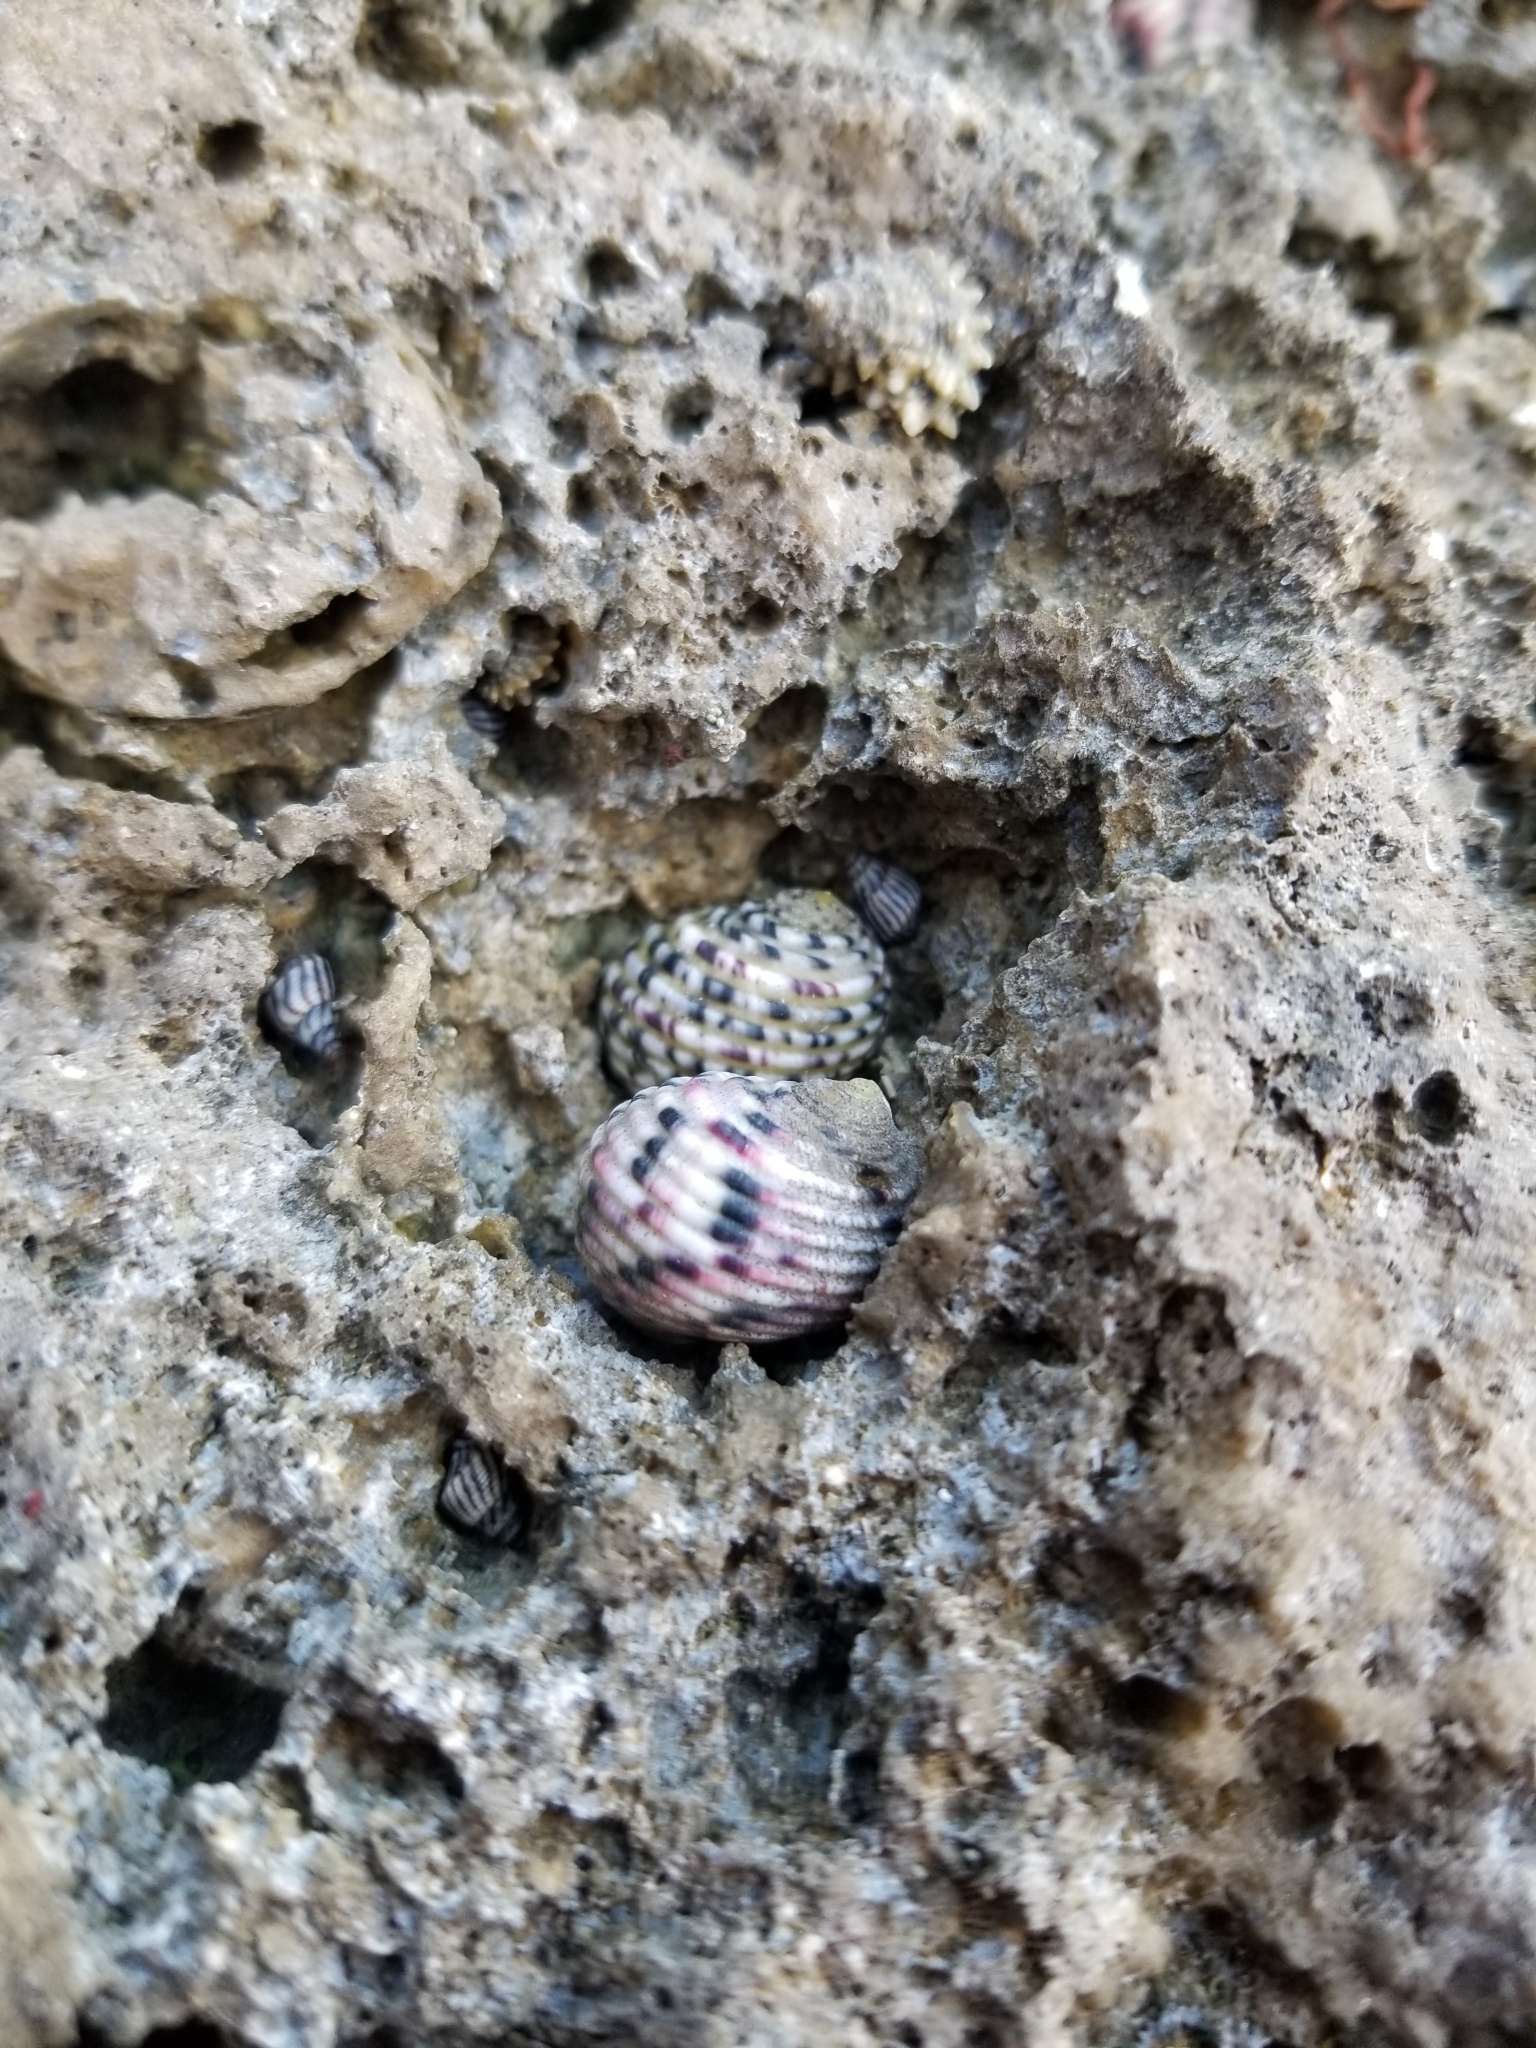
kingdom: Animalia
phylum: Mollusca
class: Gastropoda
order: Cycloneritida
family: Neritidae
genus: Nerita
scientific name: Nerita versicolor
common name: Four-tooth nerite
